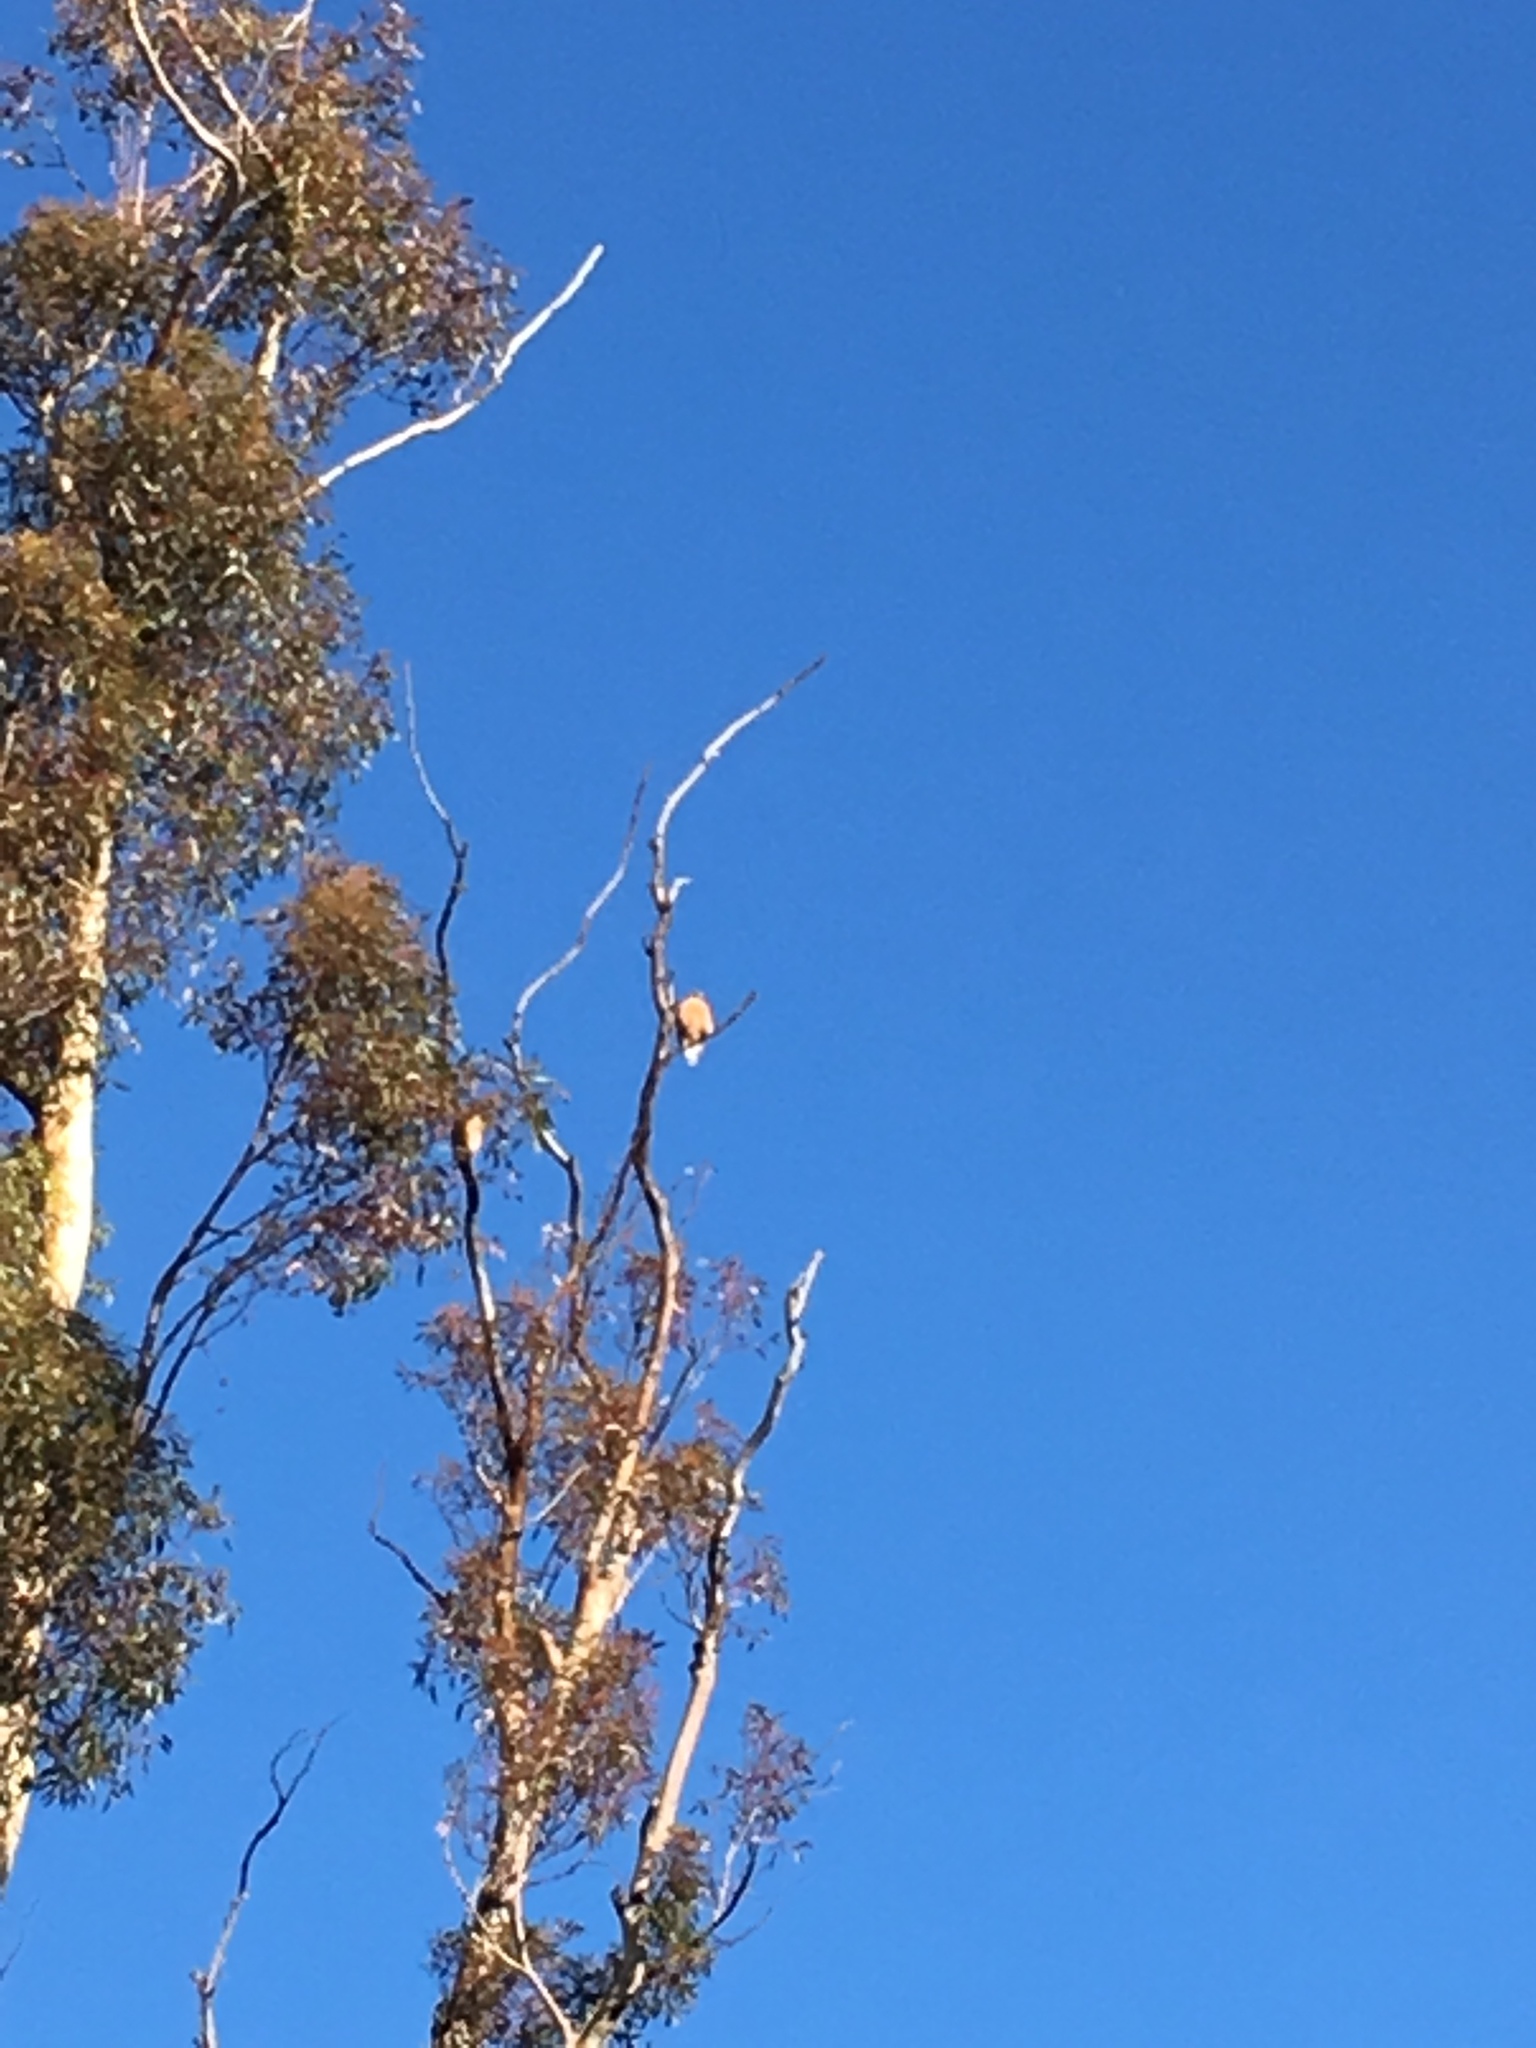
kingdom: Animalia
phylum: Chordata
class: Aves
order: Accipitriformes
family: Accipitridae
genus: Buteo
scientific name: Buteo lineatus
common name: Red-shouldered hawk
